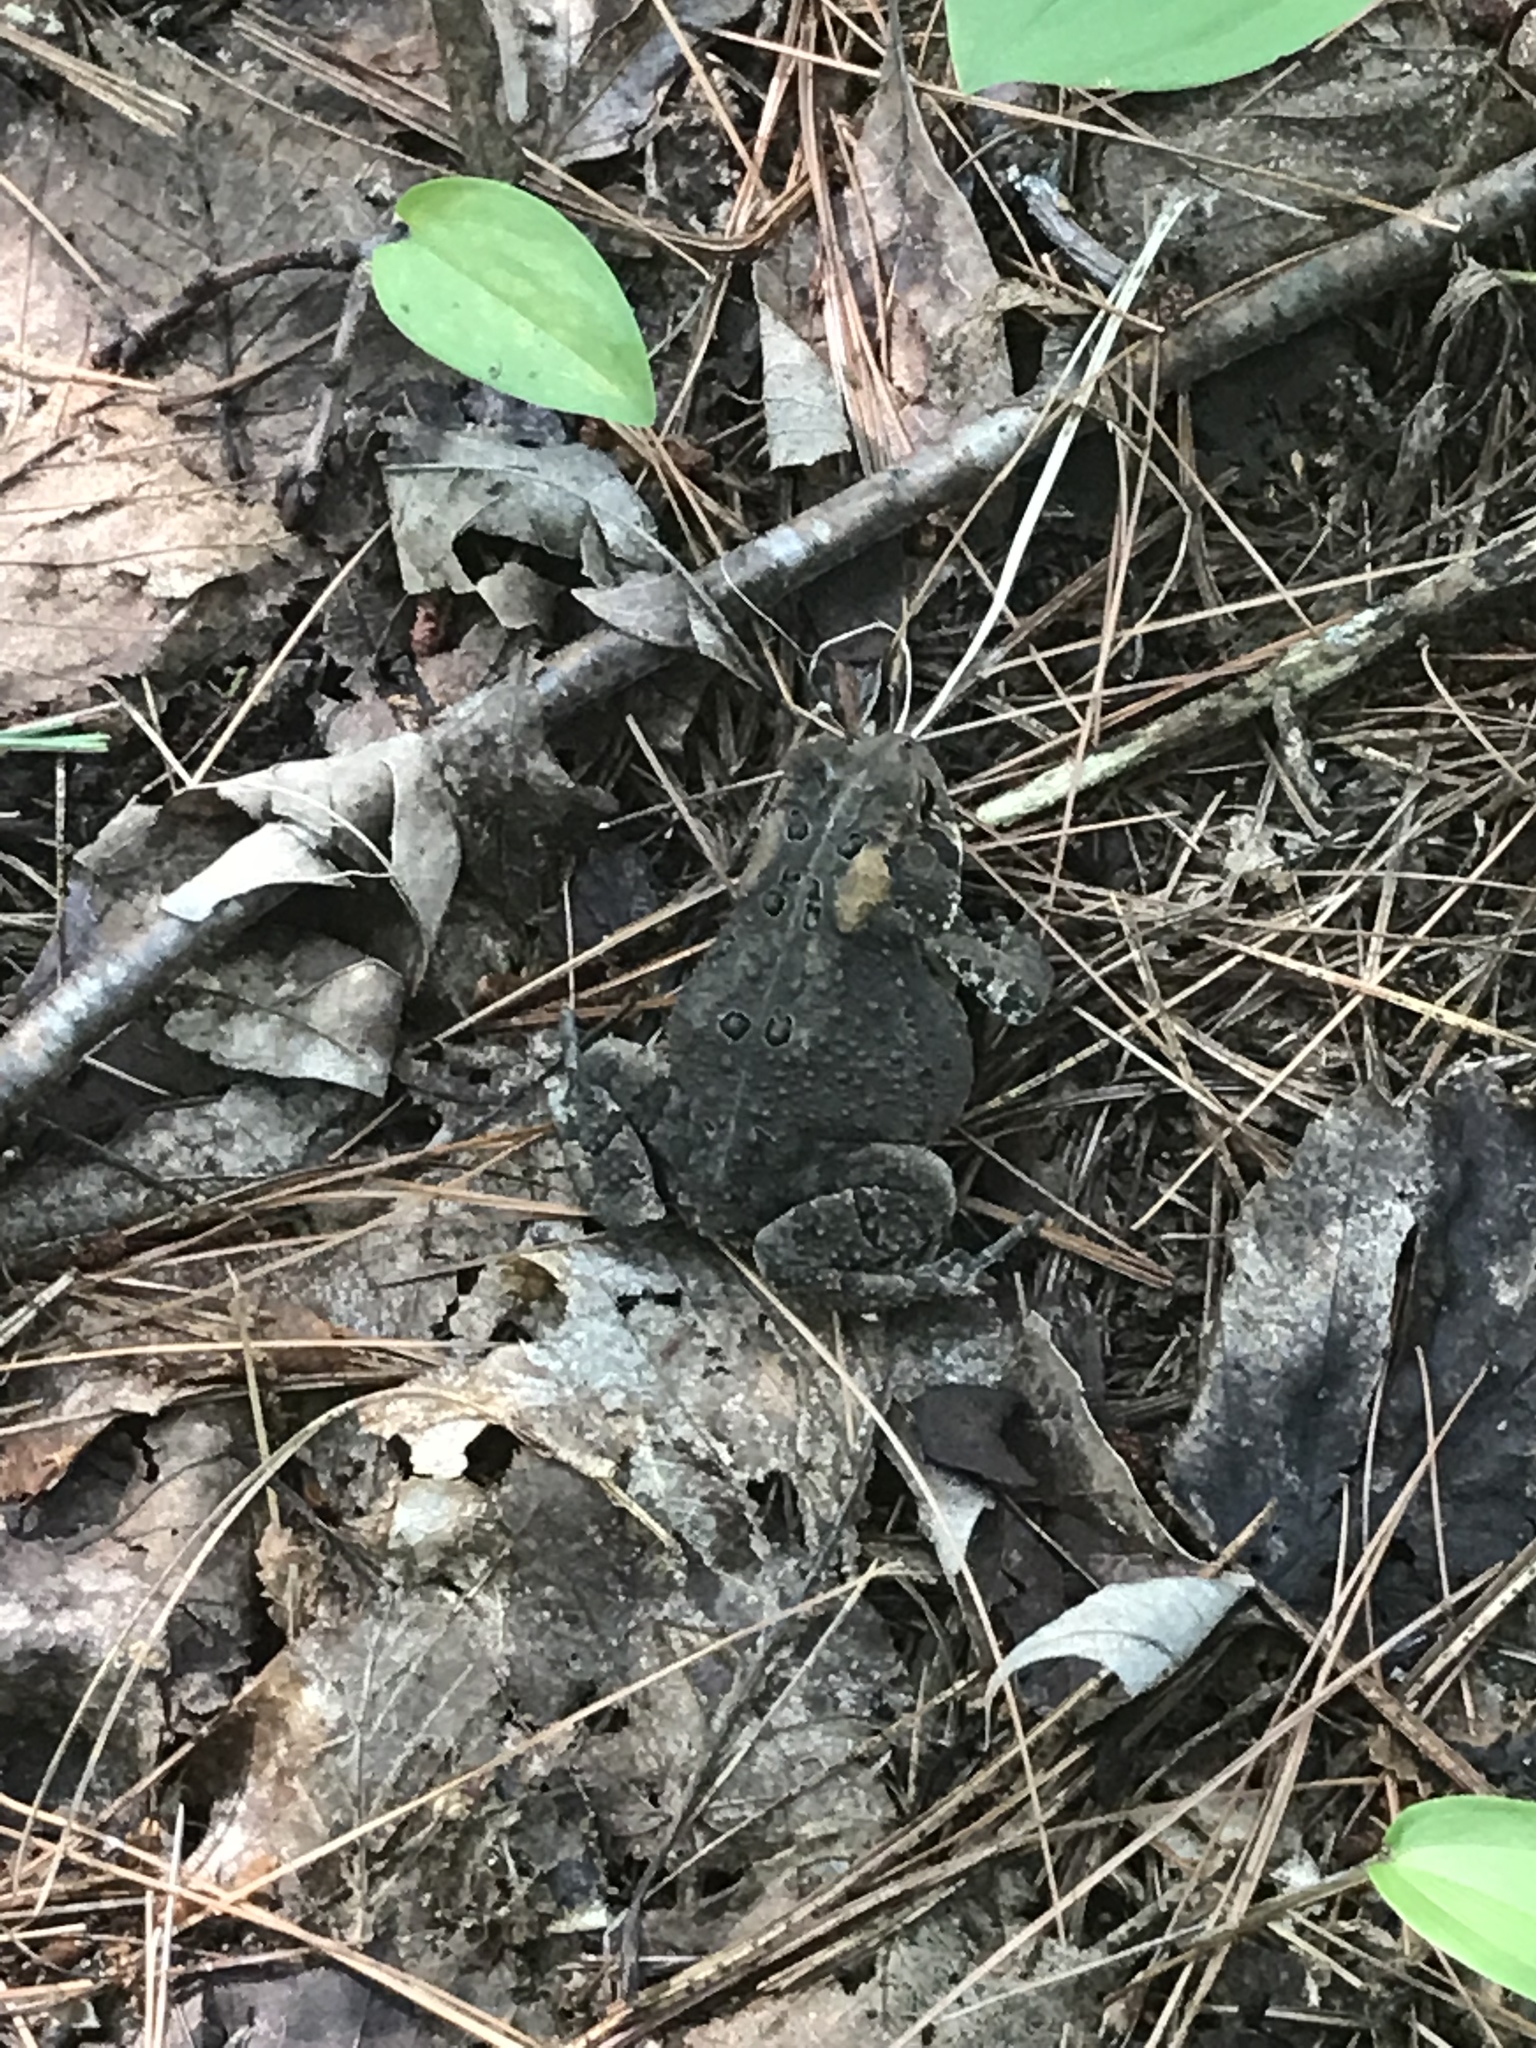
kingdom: Animalia
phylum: Chordata
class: Amphibia
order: Anura
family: Bufonidae
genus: Anaxyrus
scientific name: Anaxyrus americanus
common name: American toad
